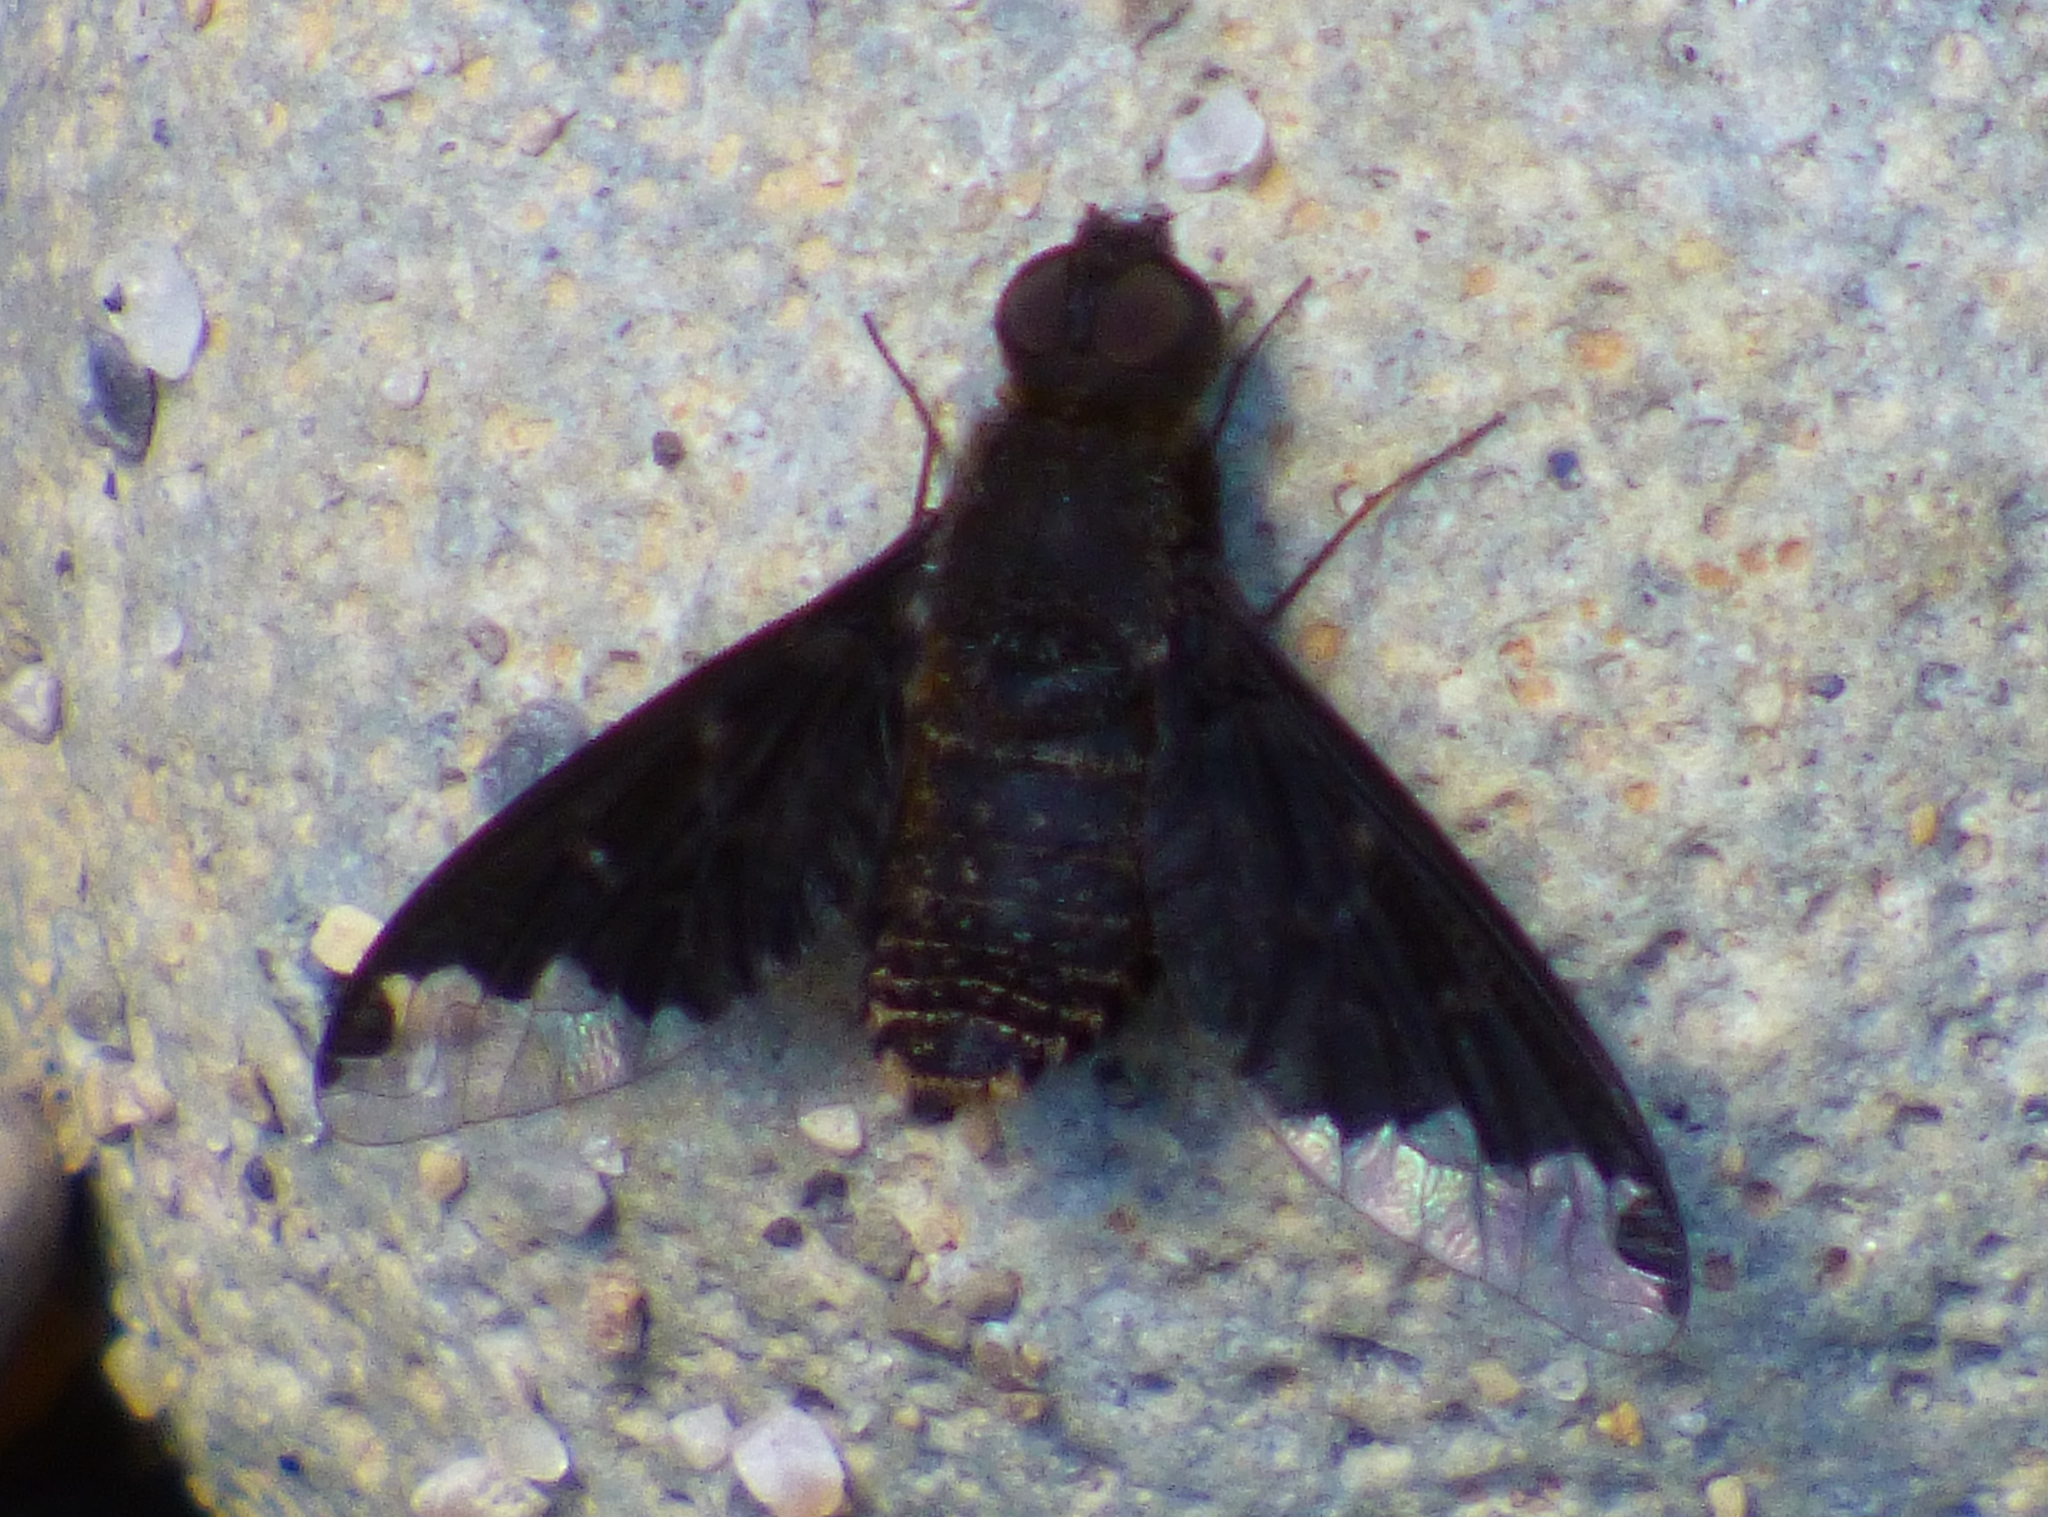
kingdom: Animalia
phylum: Arthropoda
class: Insecta
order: Diptera
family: Bombyliidae
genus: Hemipenthes
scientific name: Hemipenthes sinuosus
